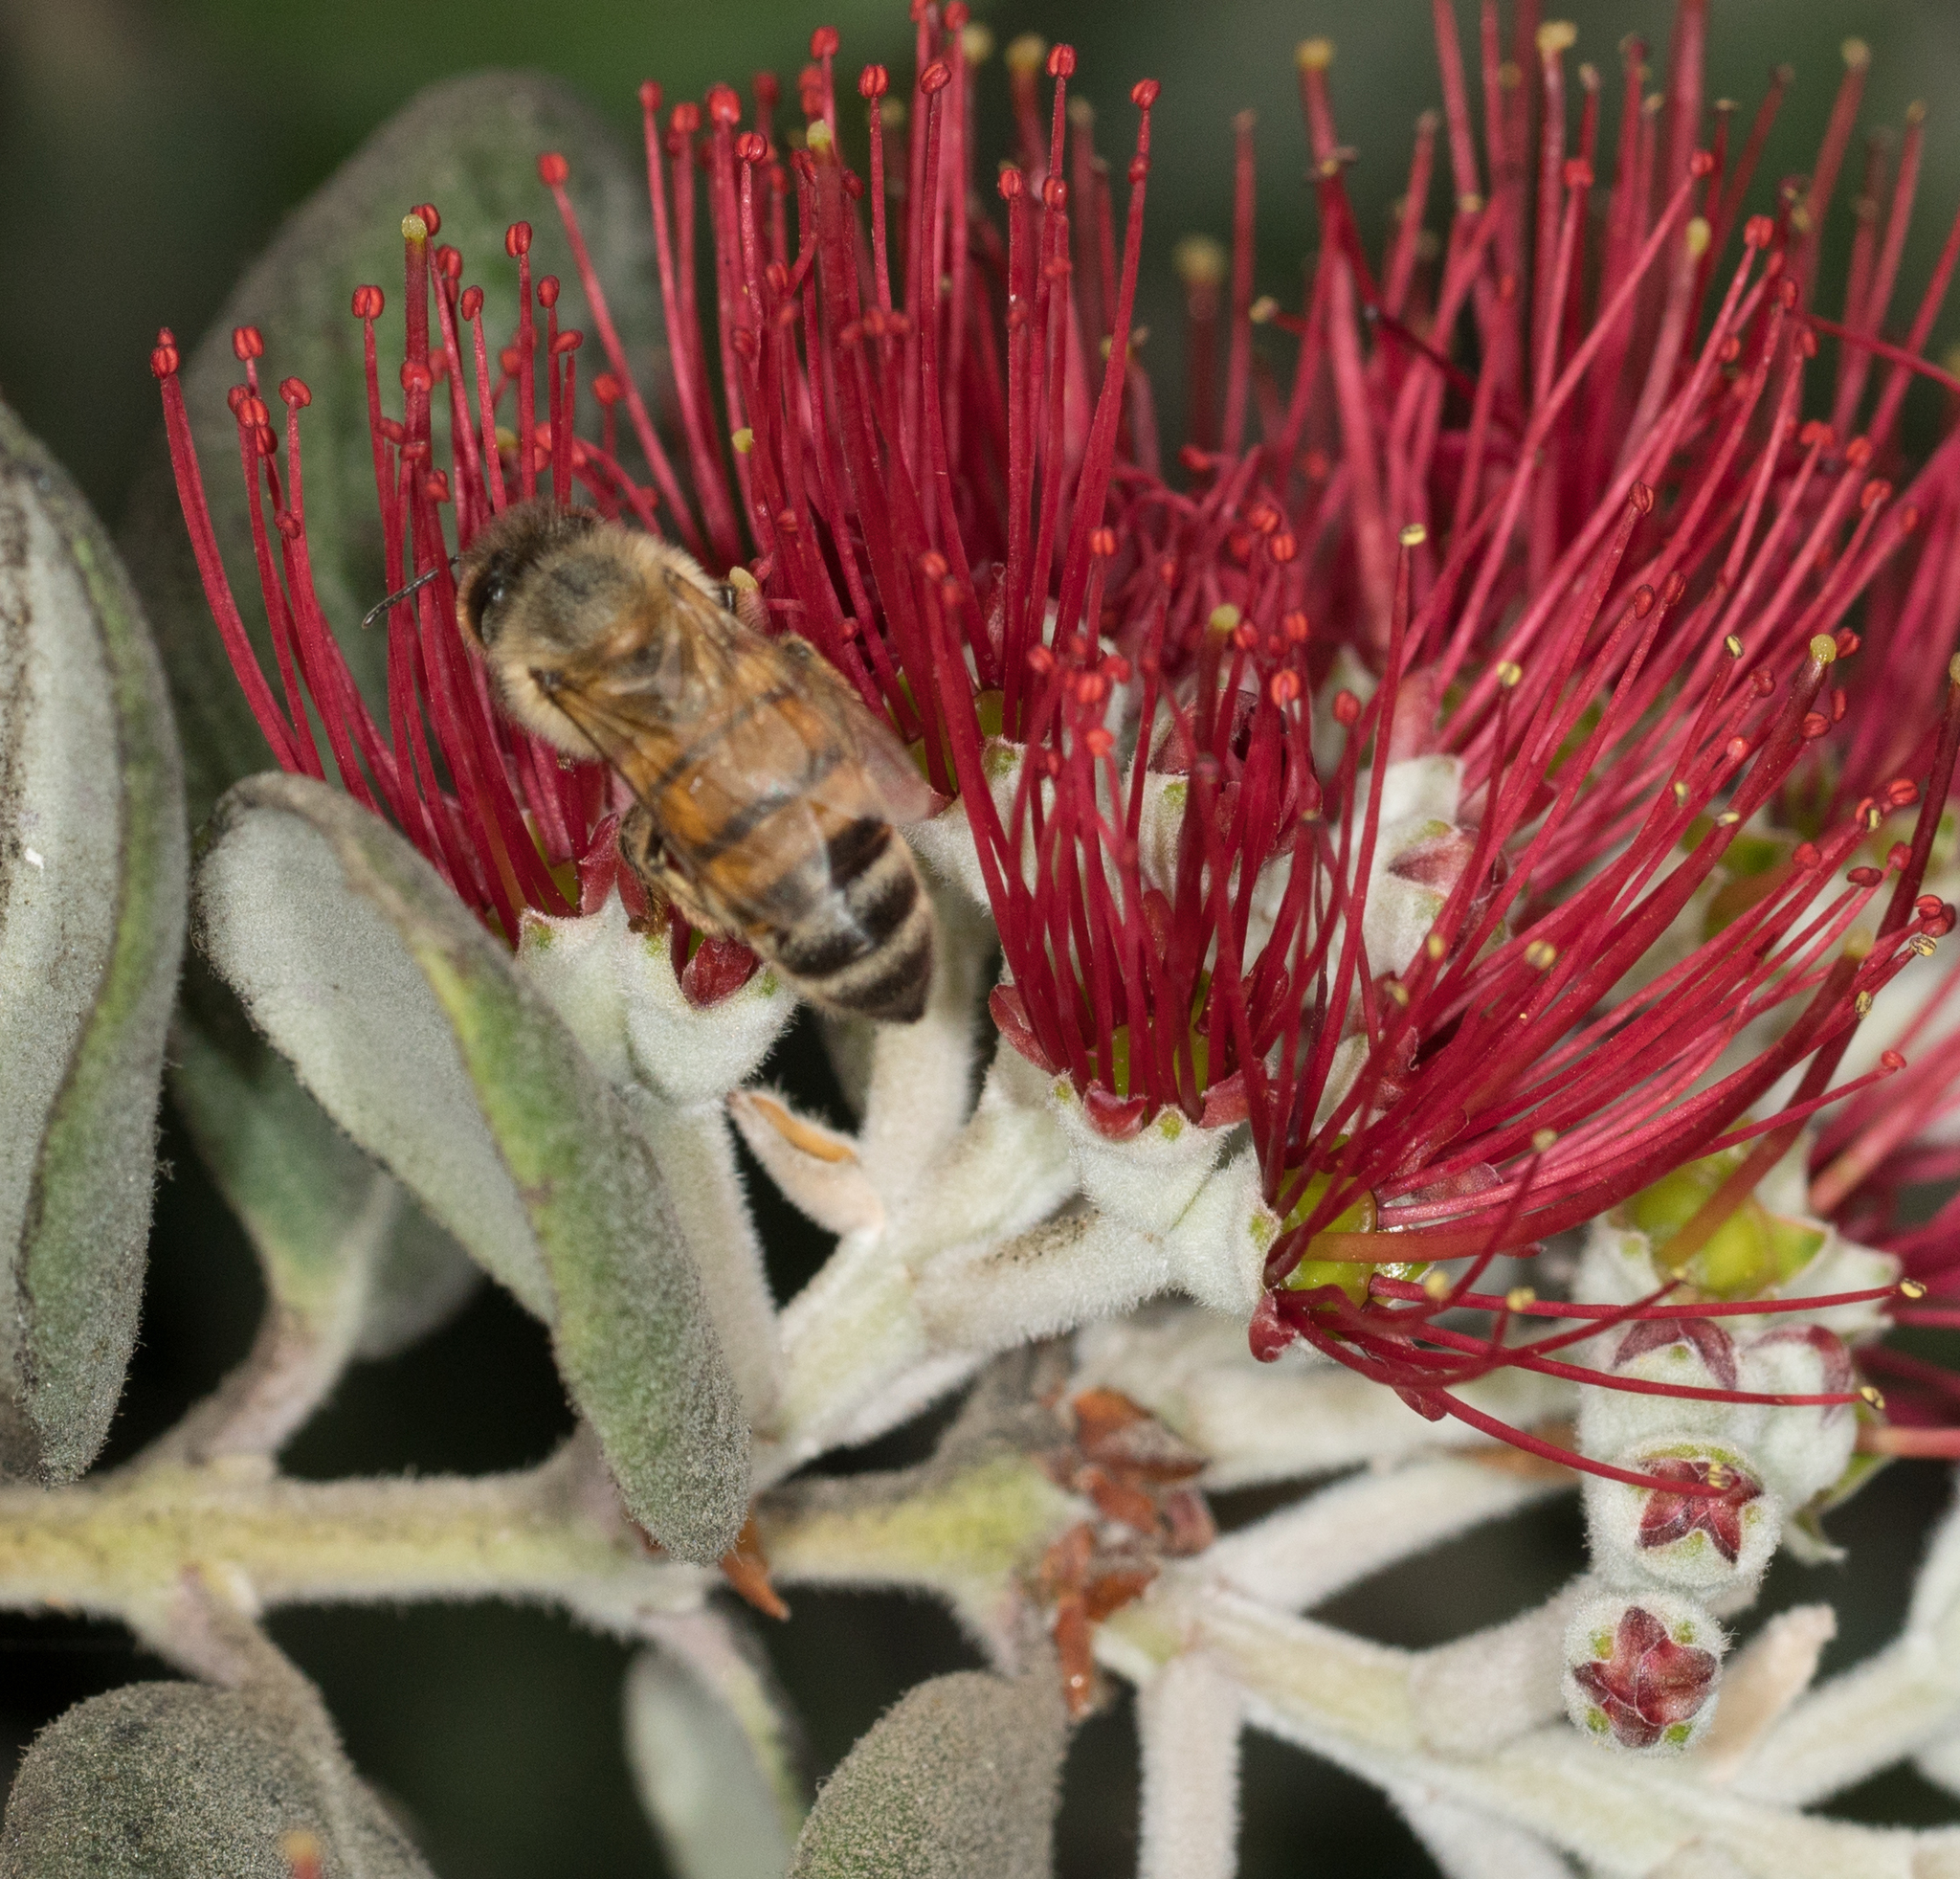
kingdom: Animalia
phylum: Arthropoda
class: Insecta
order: Hymenoptera
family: Apidae
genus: Apis
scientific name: Apis mellifera
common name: Honey bee
